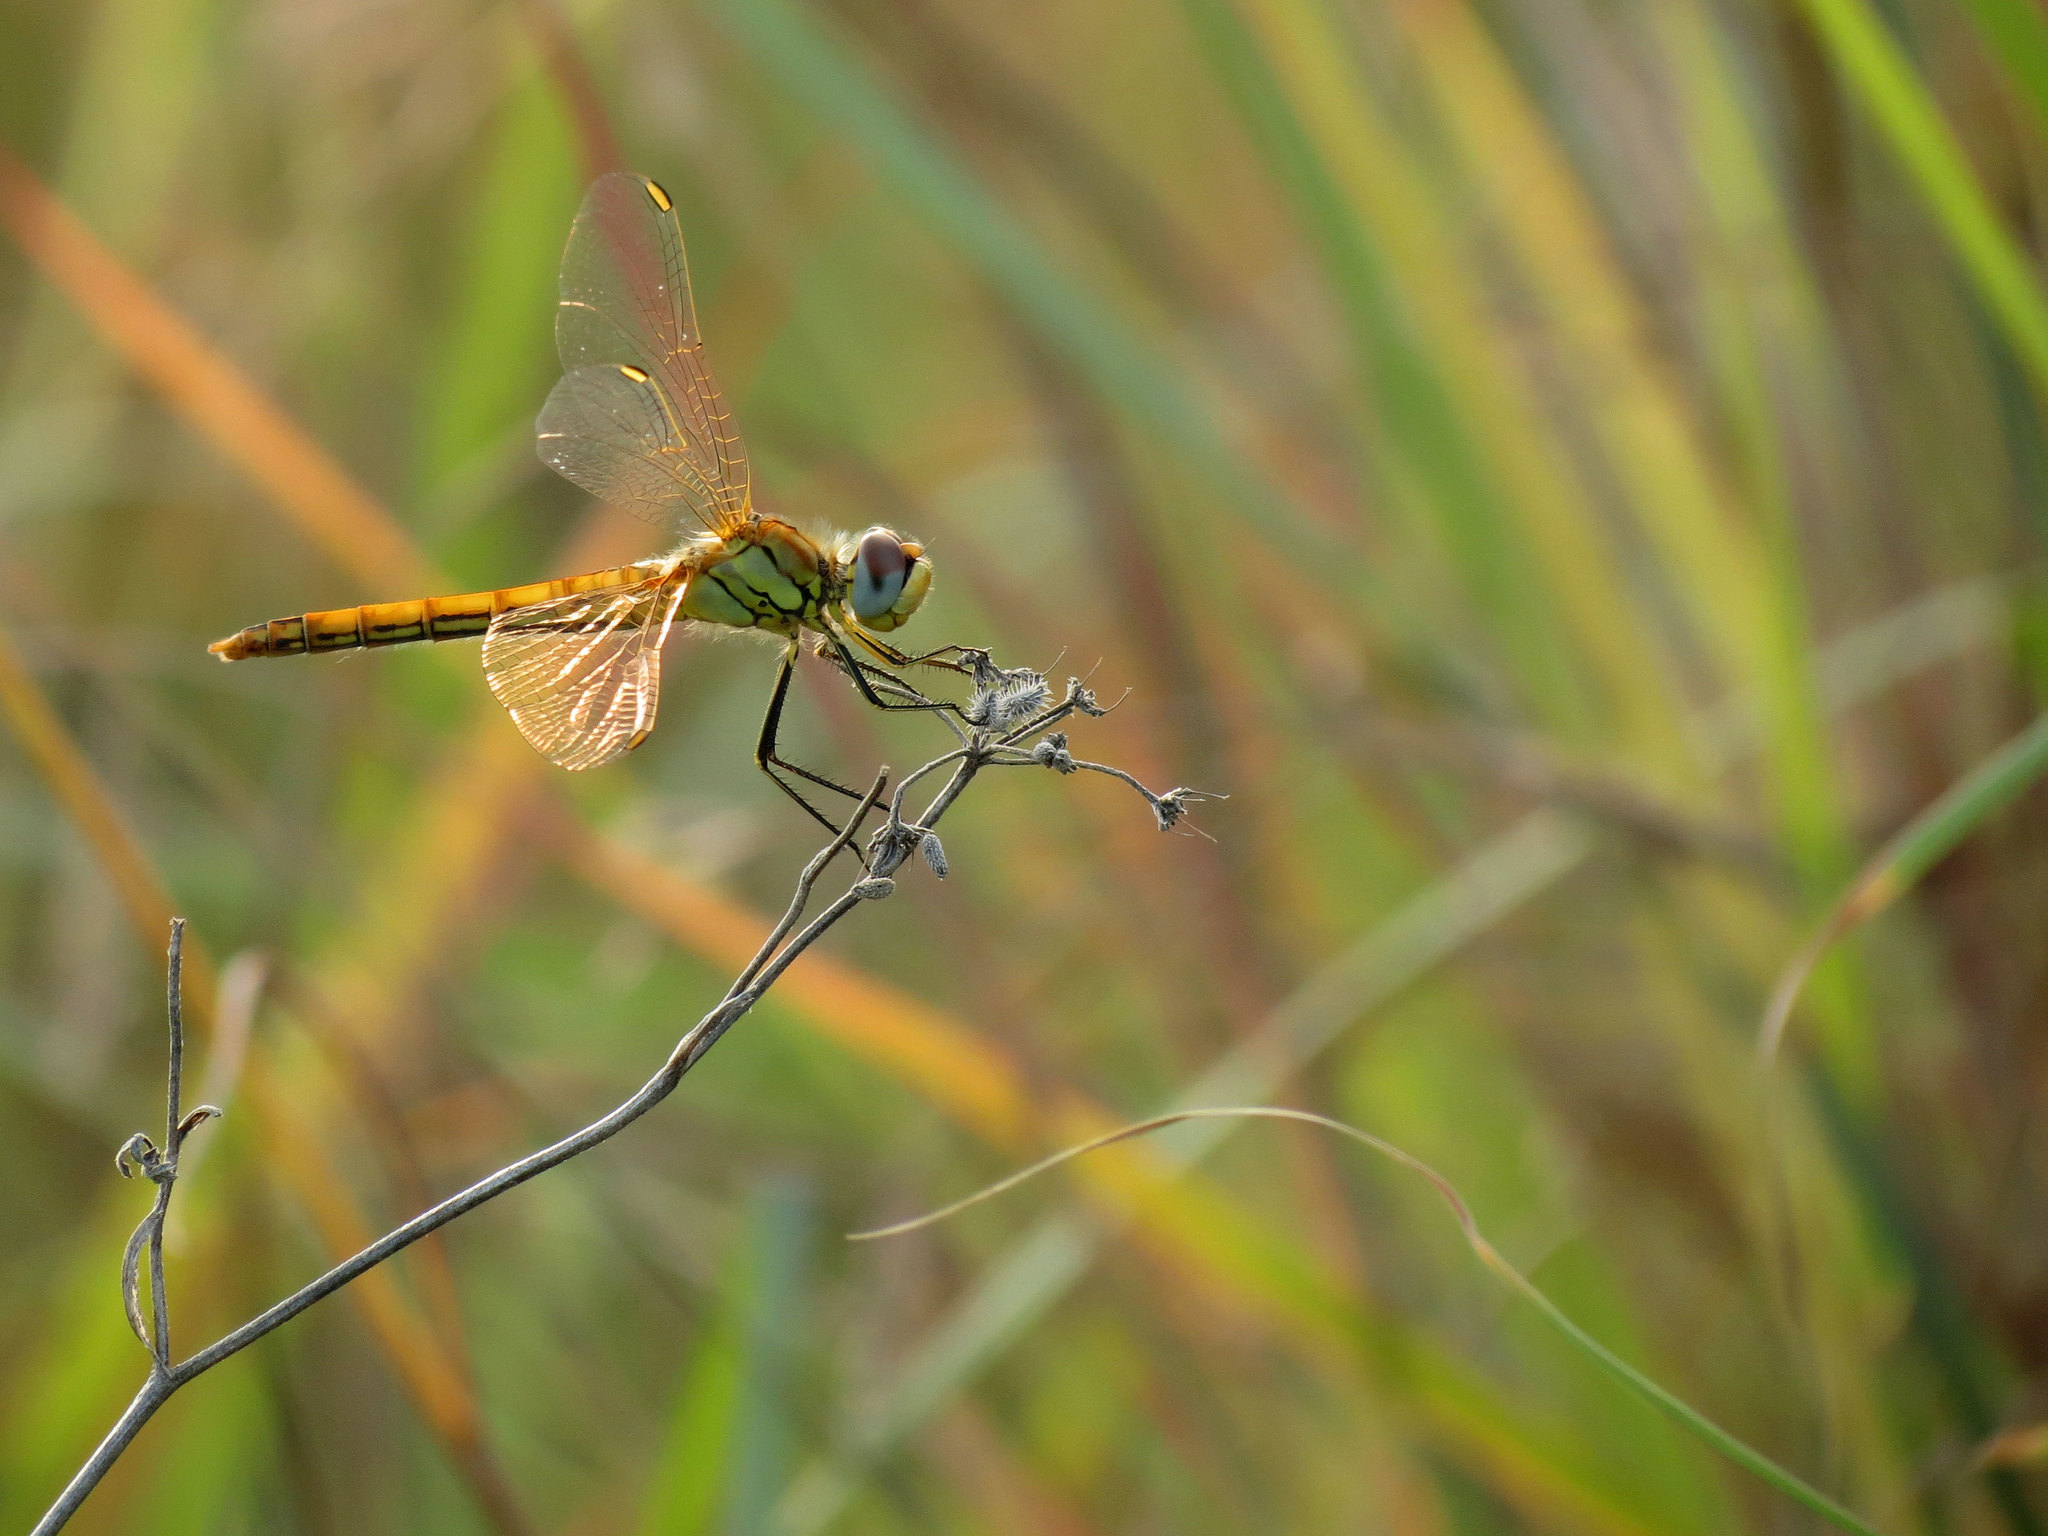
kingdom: Animalia
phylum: Arthropoda
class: Insecta
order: Odonata
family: Libellulidae
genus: Sympetrum
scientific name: Sympetrum fonscolombii
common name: Red-veined darter
